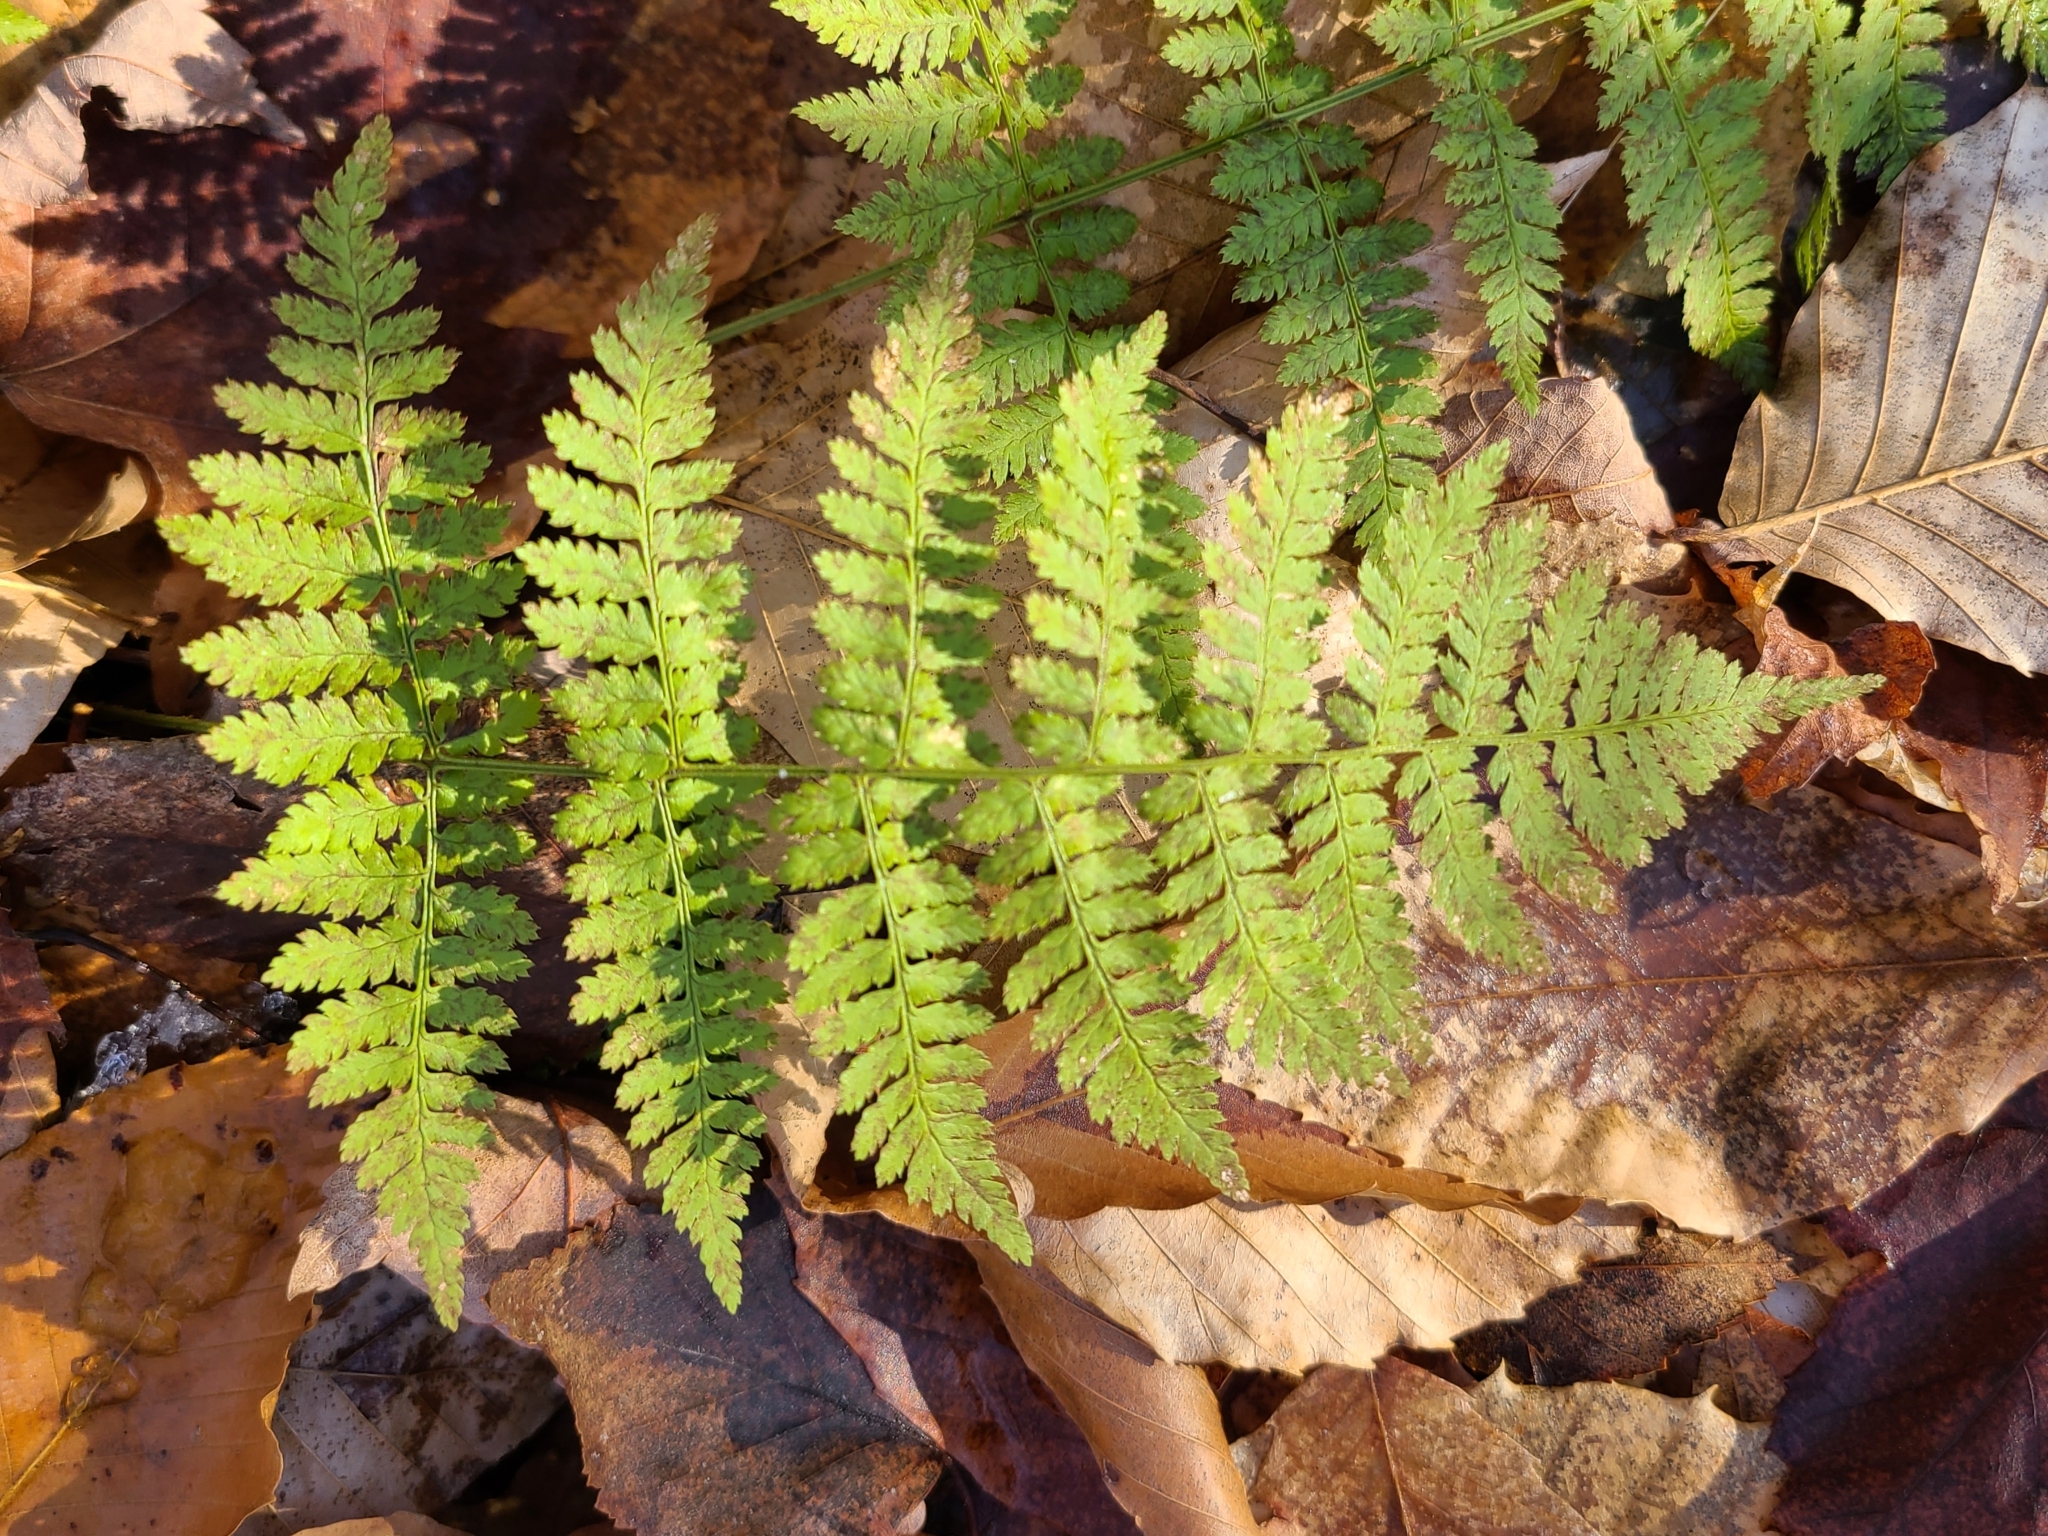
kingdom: Plantae
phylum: Tracheophyta
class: Polypodiopsida
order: Polypodiales
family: Dryopteridaceae
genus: Dryopteris
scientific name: Dryopteris intermedia
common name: Evergreen wood fern
